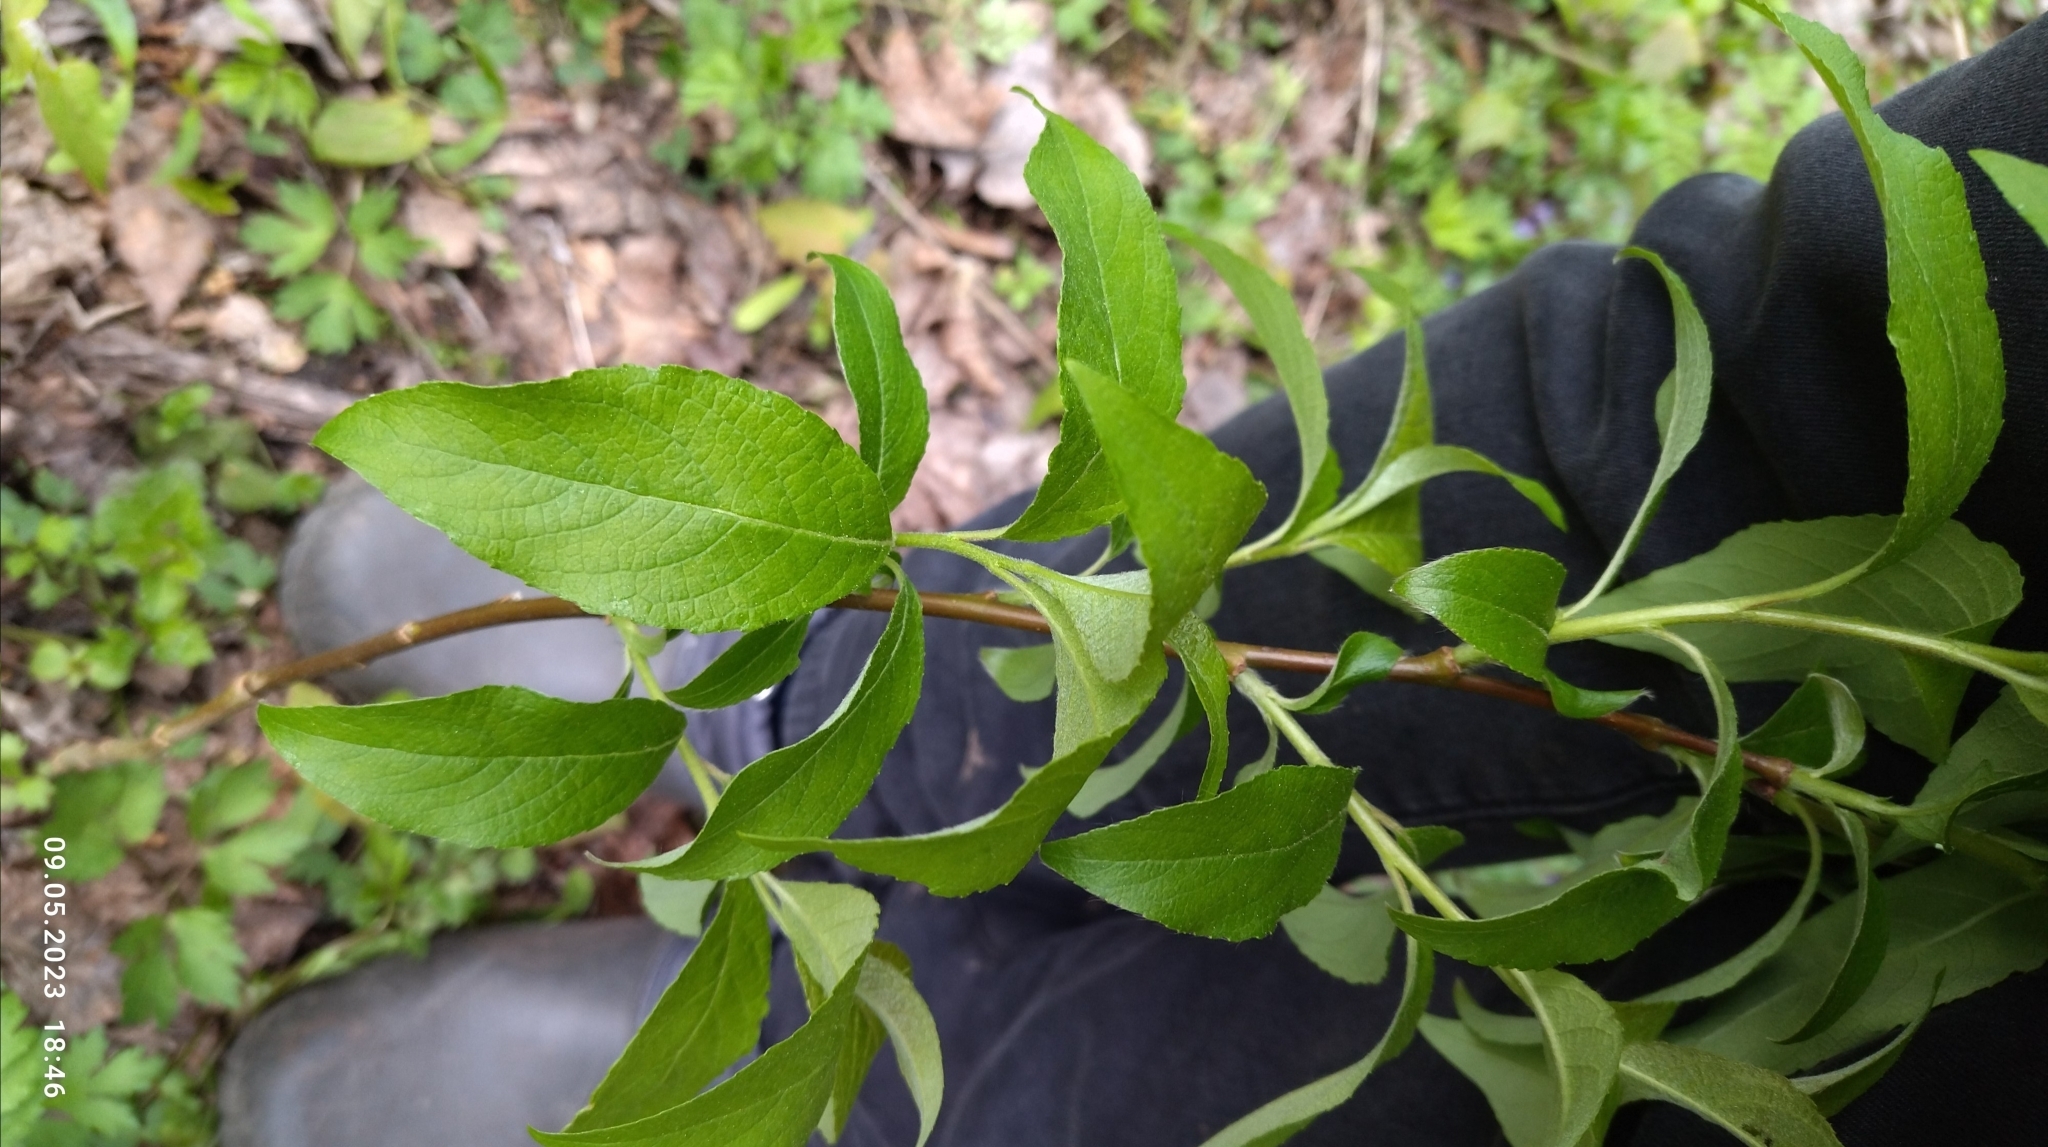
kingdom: Plantae
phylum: Tracheophyta
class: Magnoliopsida
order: Malpighiales
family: Salicaceae
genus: Salix
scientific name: Salix caprea
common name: Goat willow
